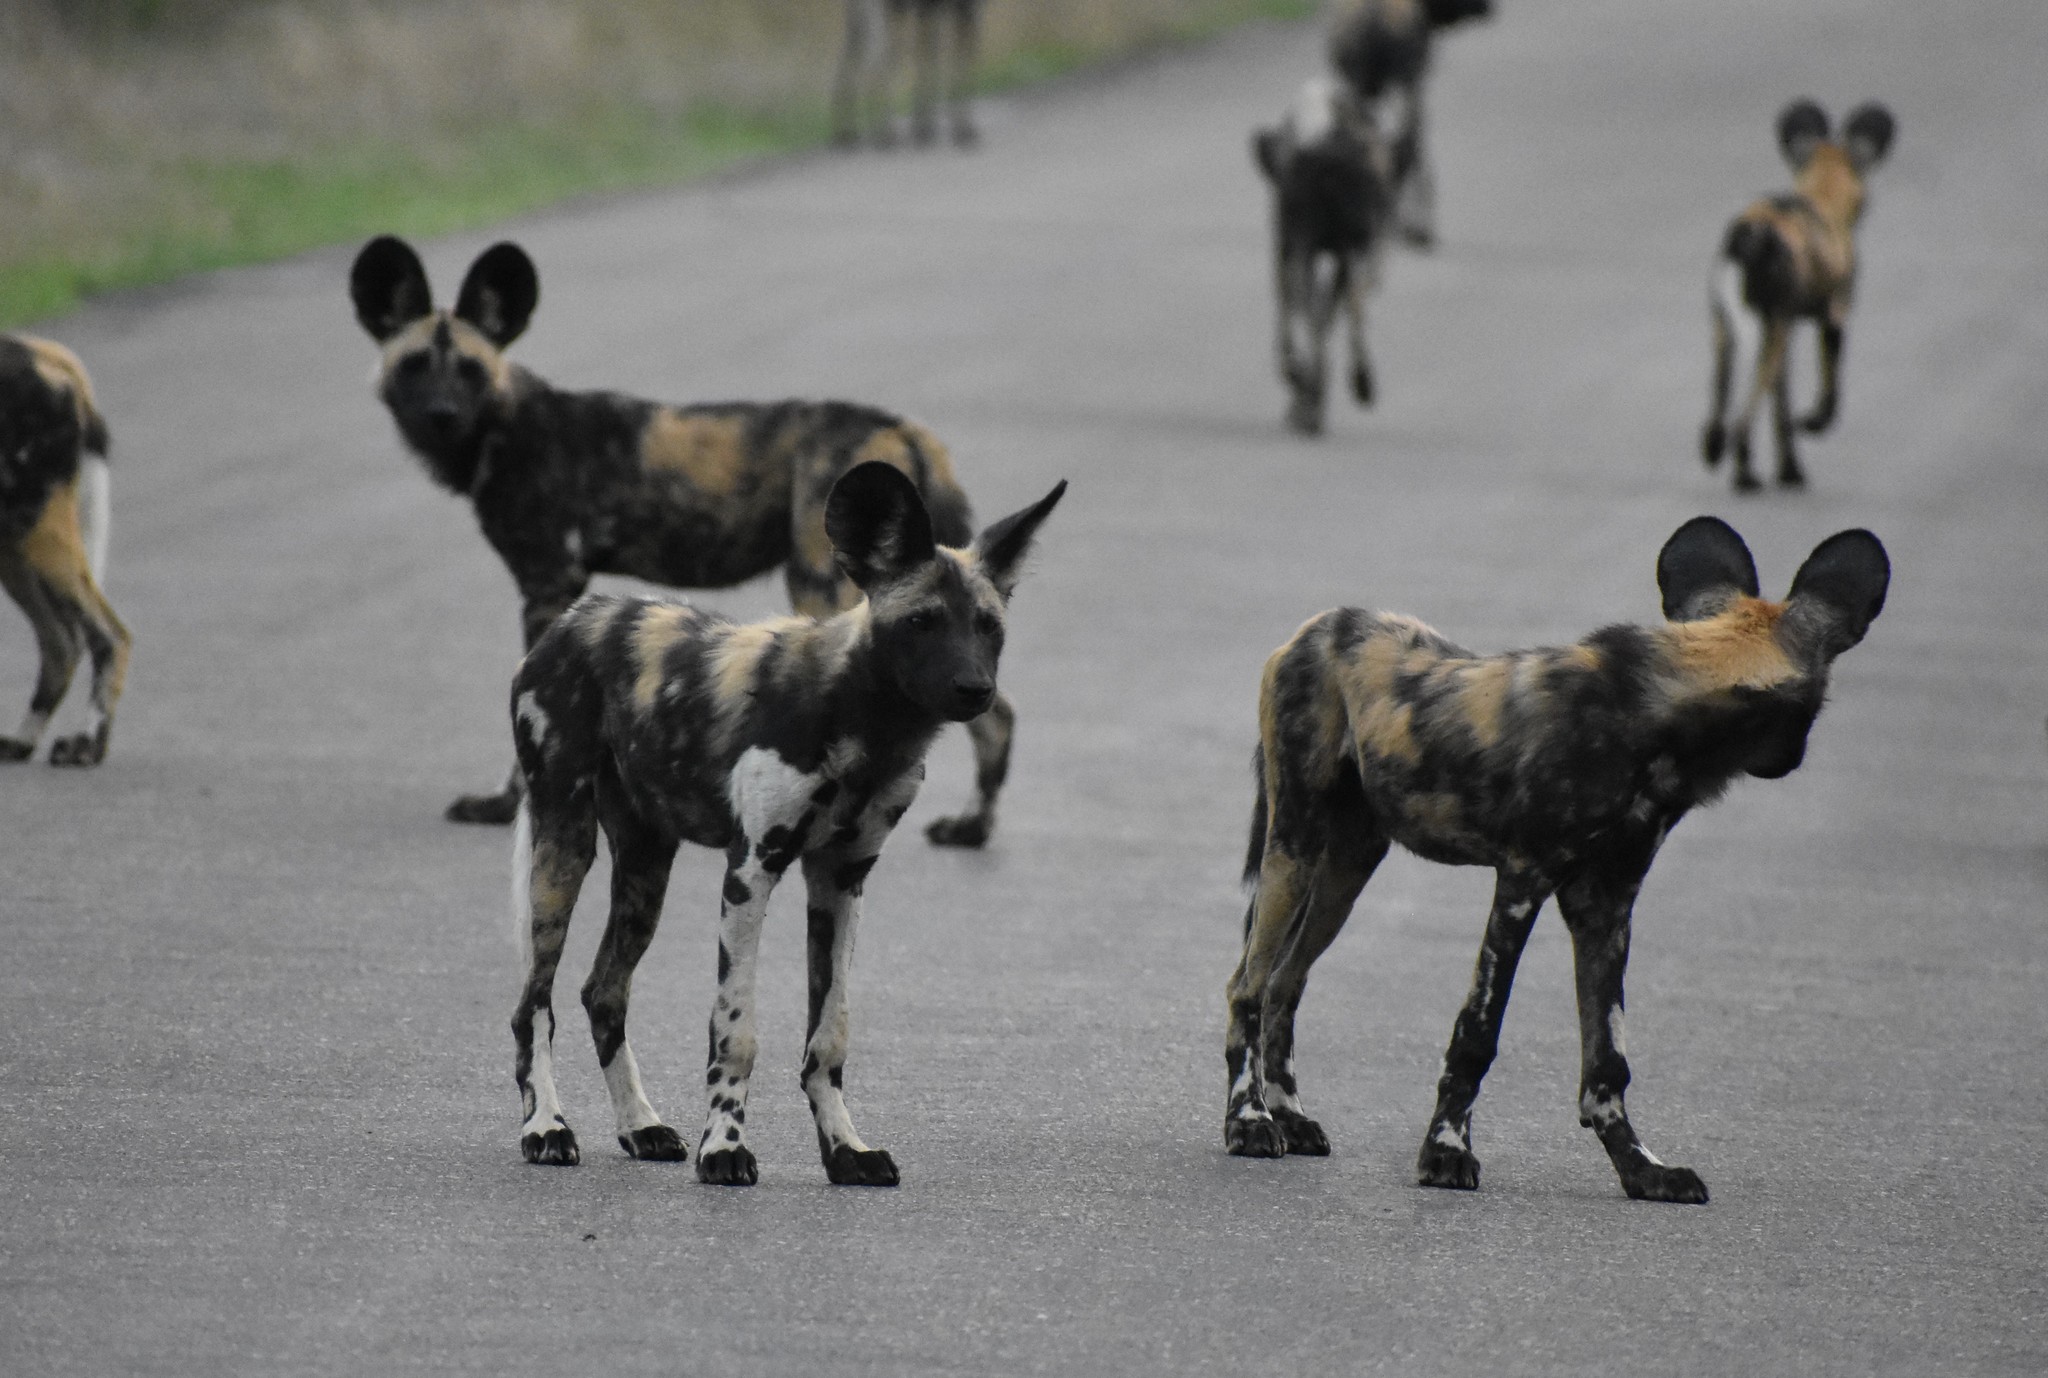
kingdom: Animalia
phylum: Chordata
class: Mammalia
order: Carnivora
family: Canidae
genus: Lycaon
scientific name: Lycaon pictus
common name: African wild dog
